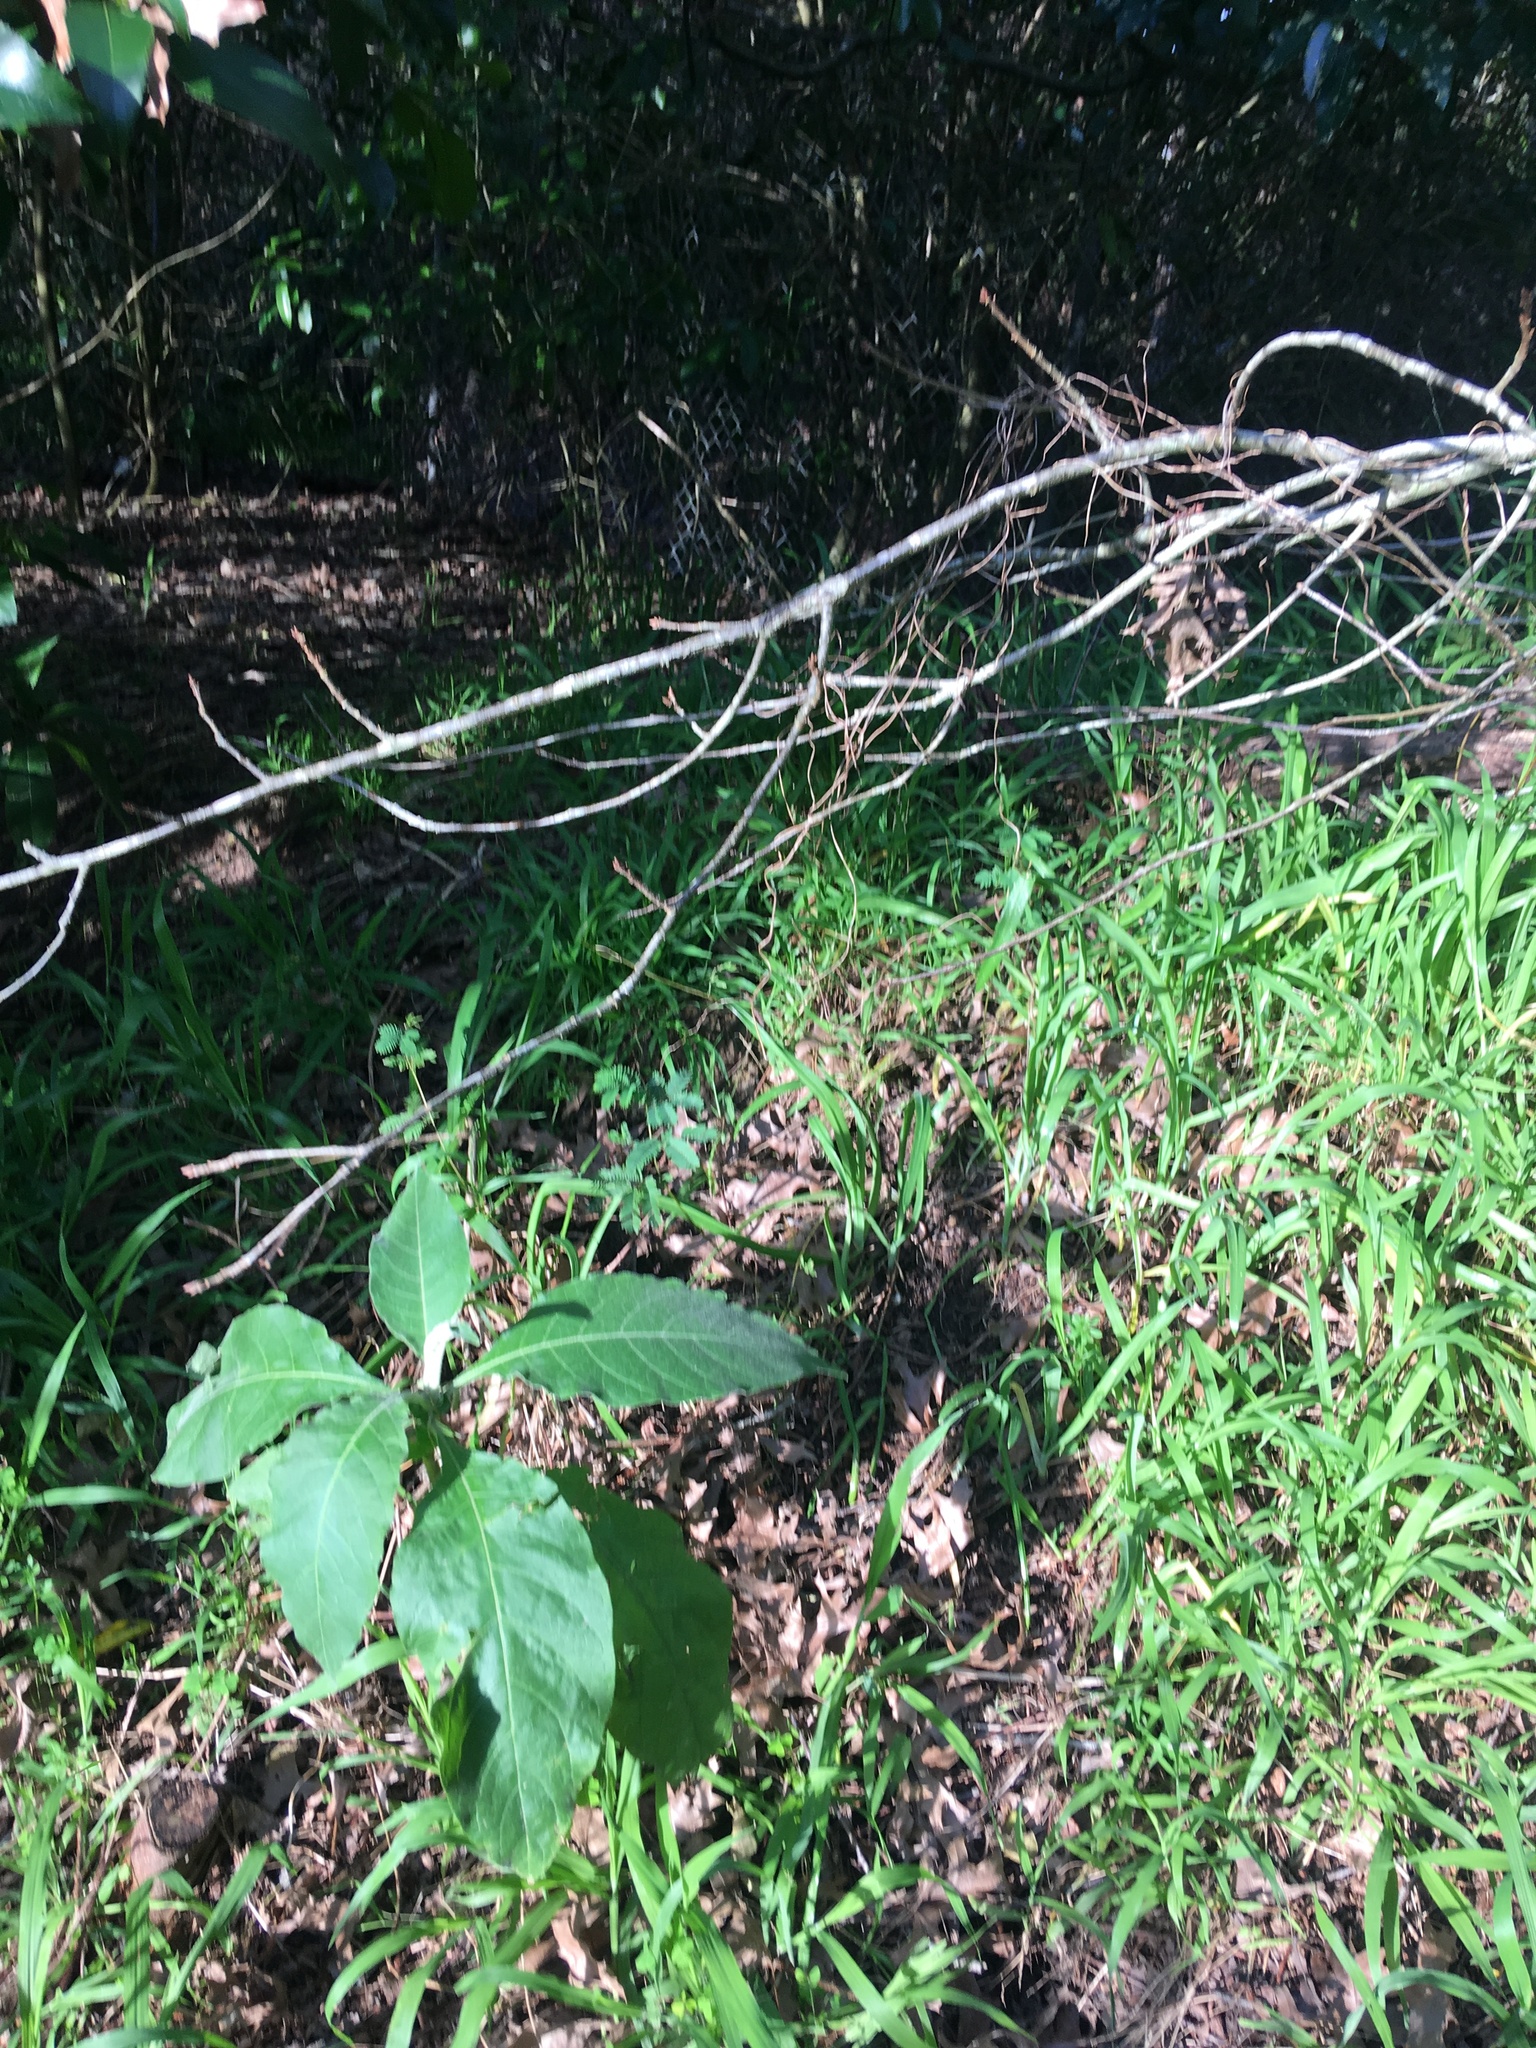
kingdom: Plantae
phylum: Tracheophyta
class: Magnoliopsida
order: Solanales
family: Solanaceae
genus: Solanum
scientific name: Solanum mauritianum
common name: Earleaf nightshade
